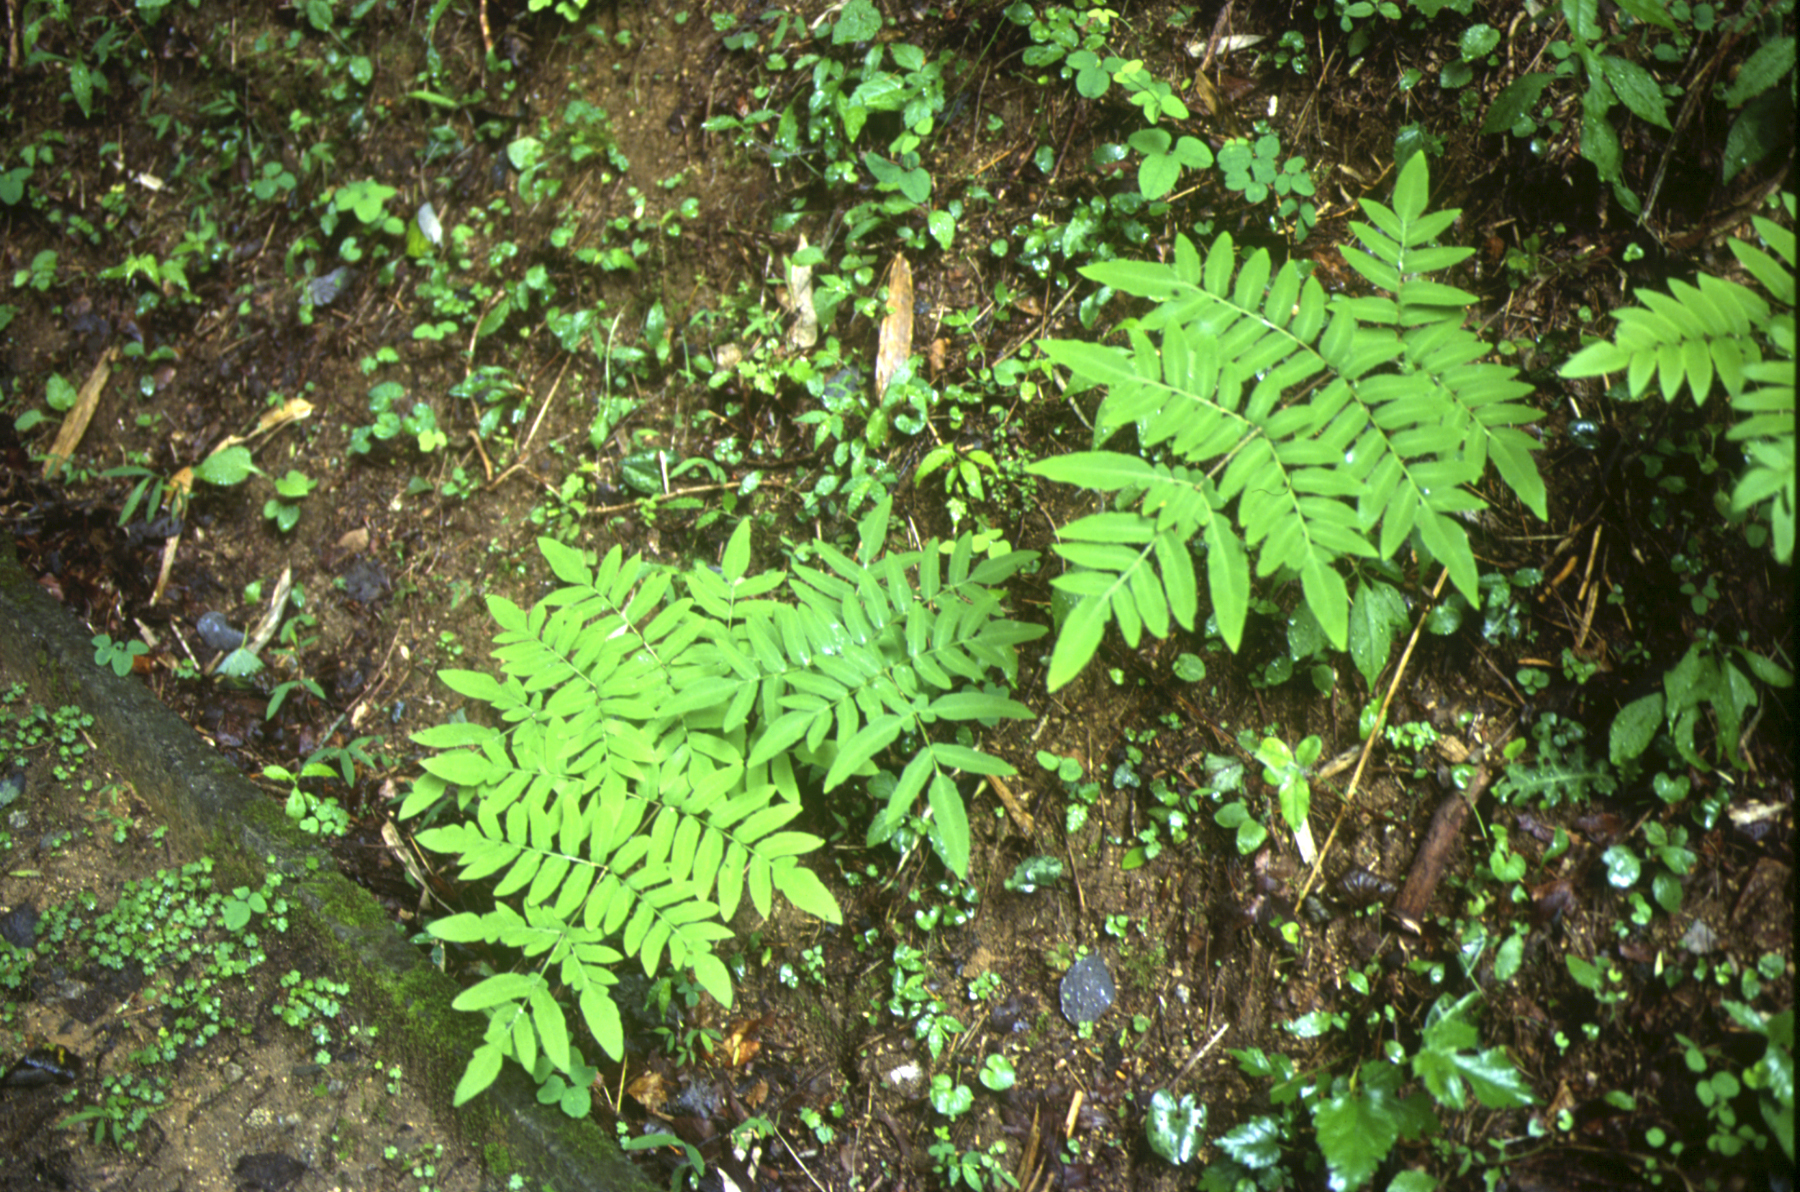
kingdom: Plantae
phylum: Tracheophyta
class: Polypodiopsida
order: Osmundales
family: Osmundaceae
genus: Osmunda
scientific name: Osmunda japonica
